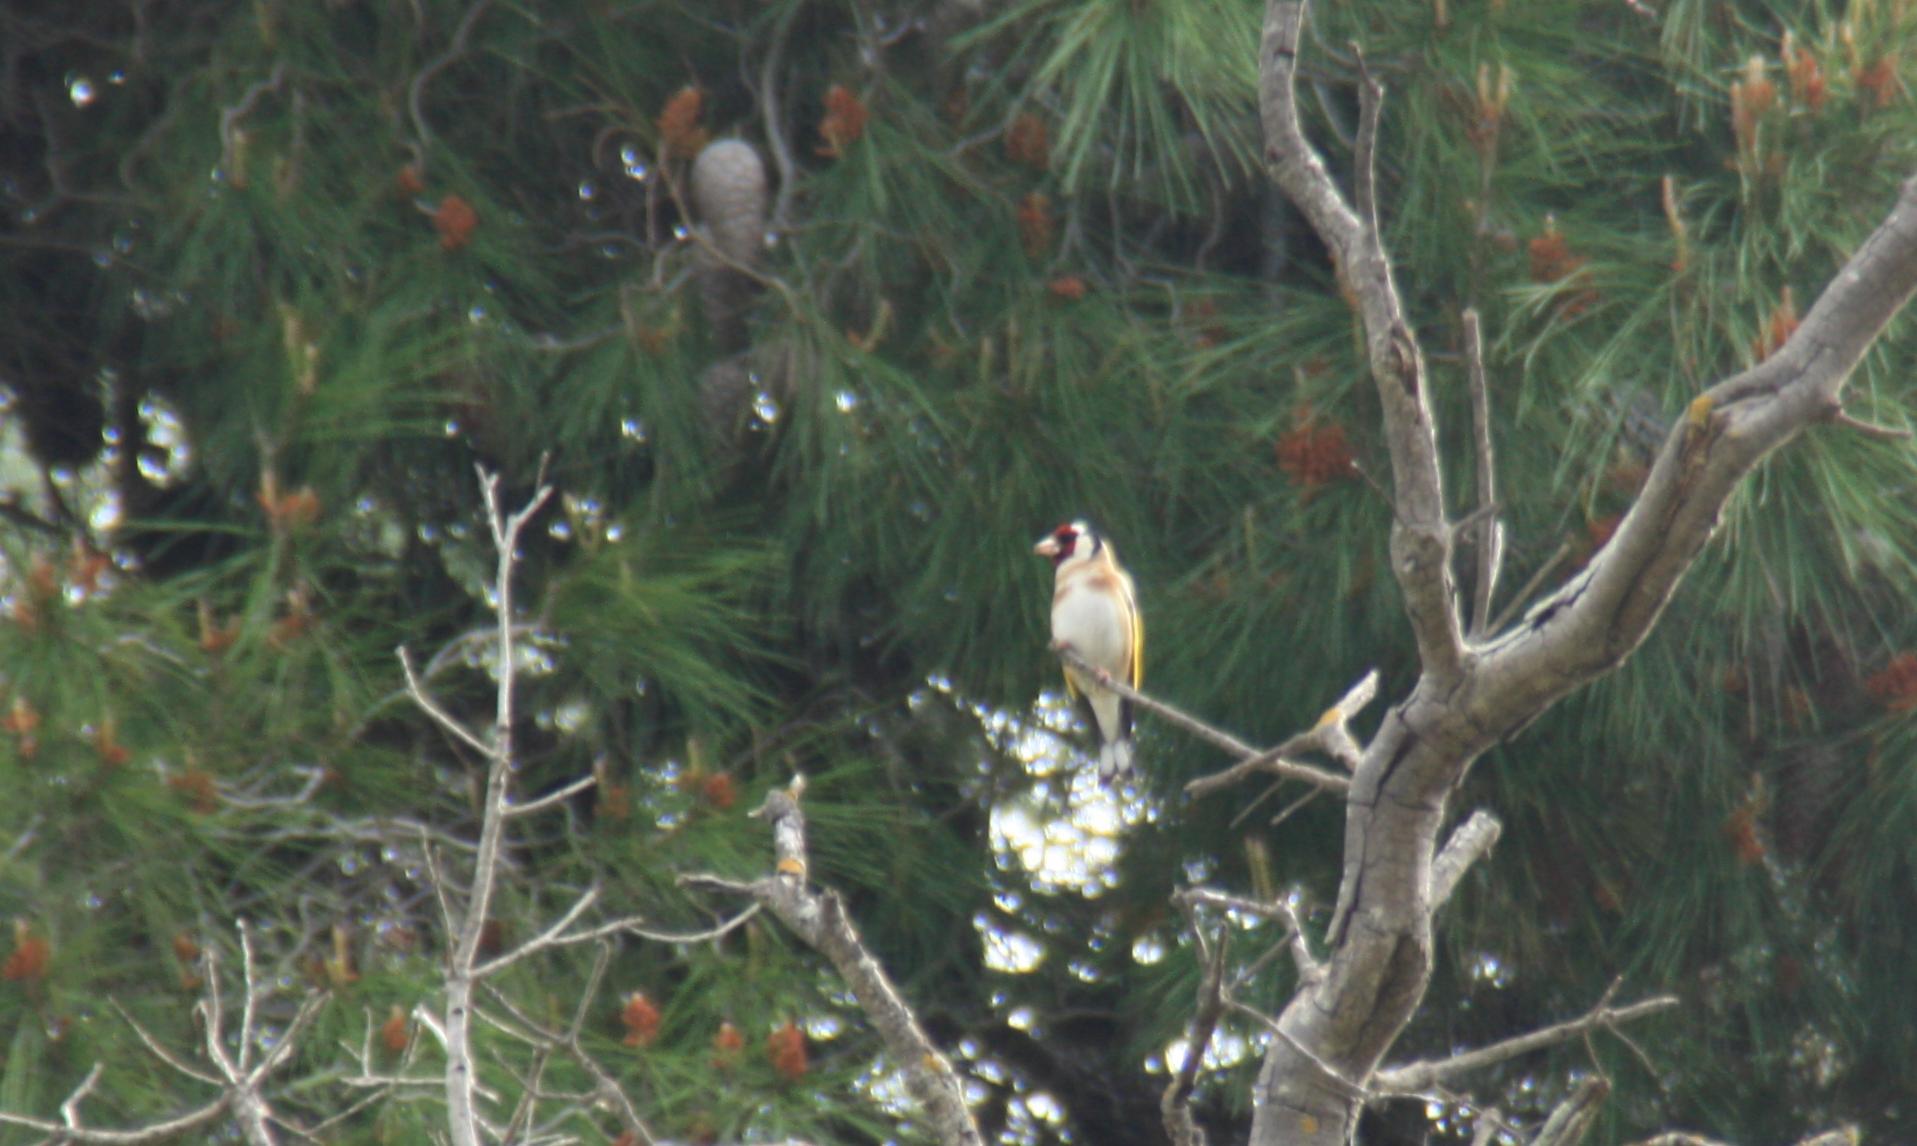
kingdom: Animalia
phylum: Chordata
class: Aves
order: Passeriformes
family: Fringillidae
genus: Carduelis
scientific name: Carduelis carduelis
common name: European goldfinch
